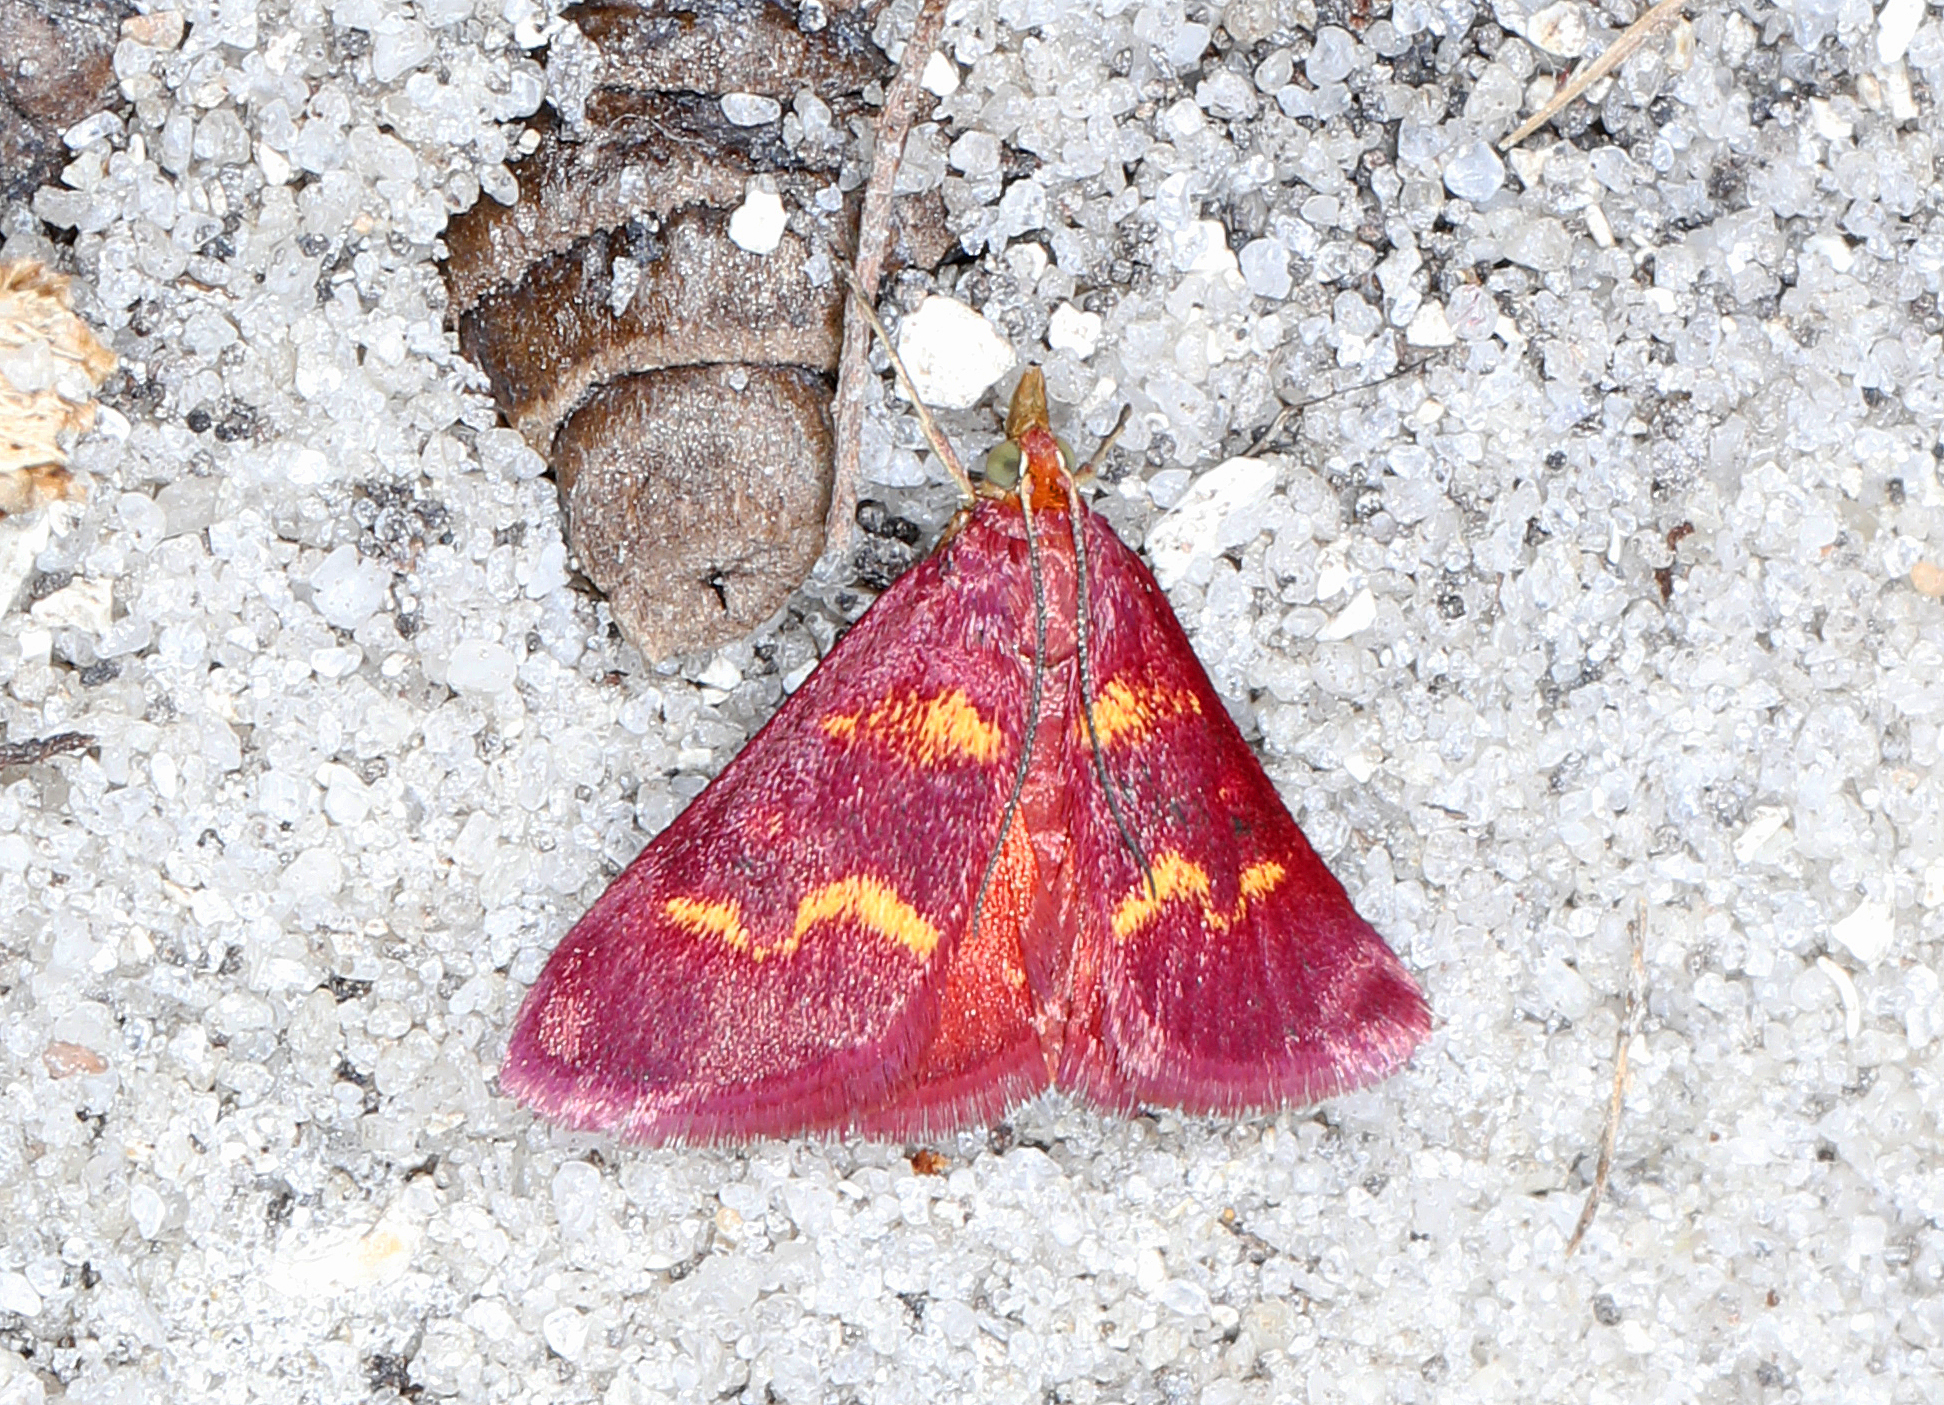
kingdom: Animalia
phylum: Arthropoda
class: Insecta
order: Lepidoptera
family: Crambidae
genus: Pyrausta
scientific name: Pyrausta tyralis
